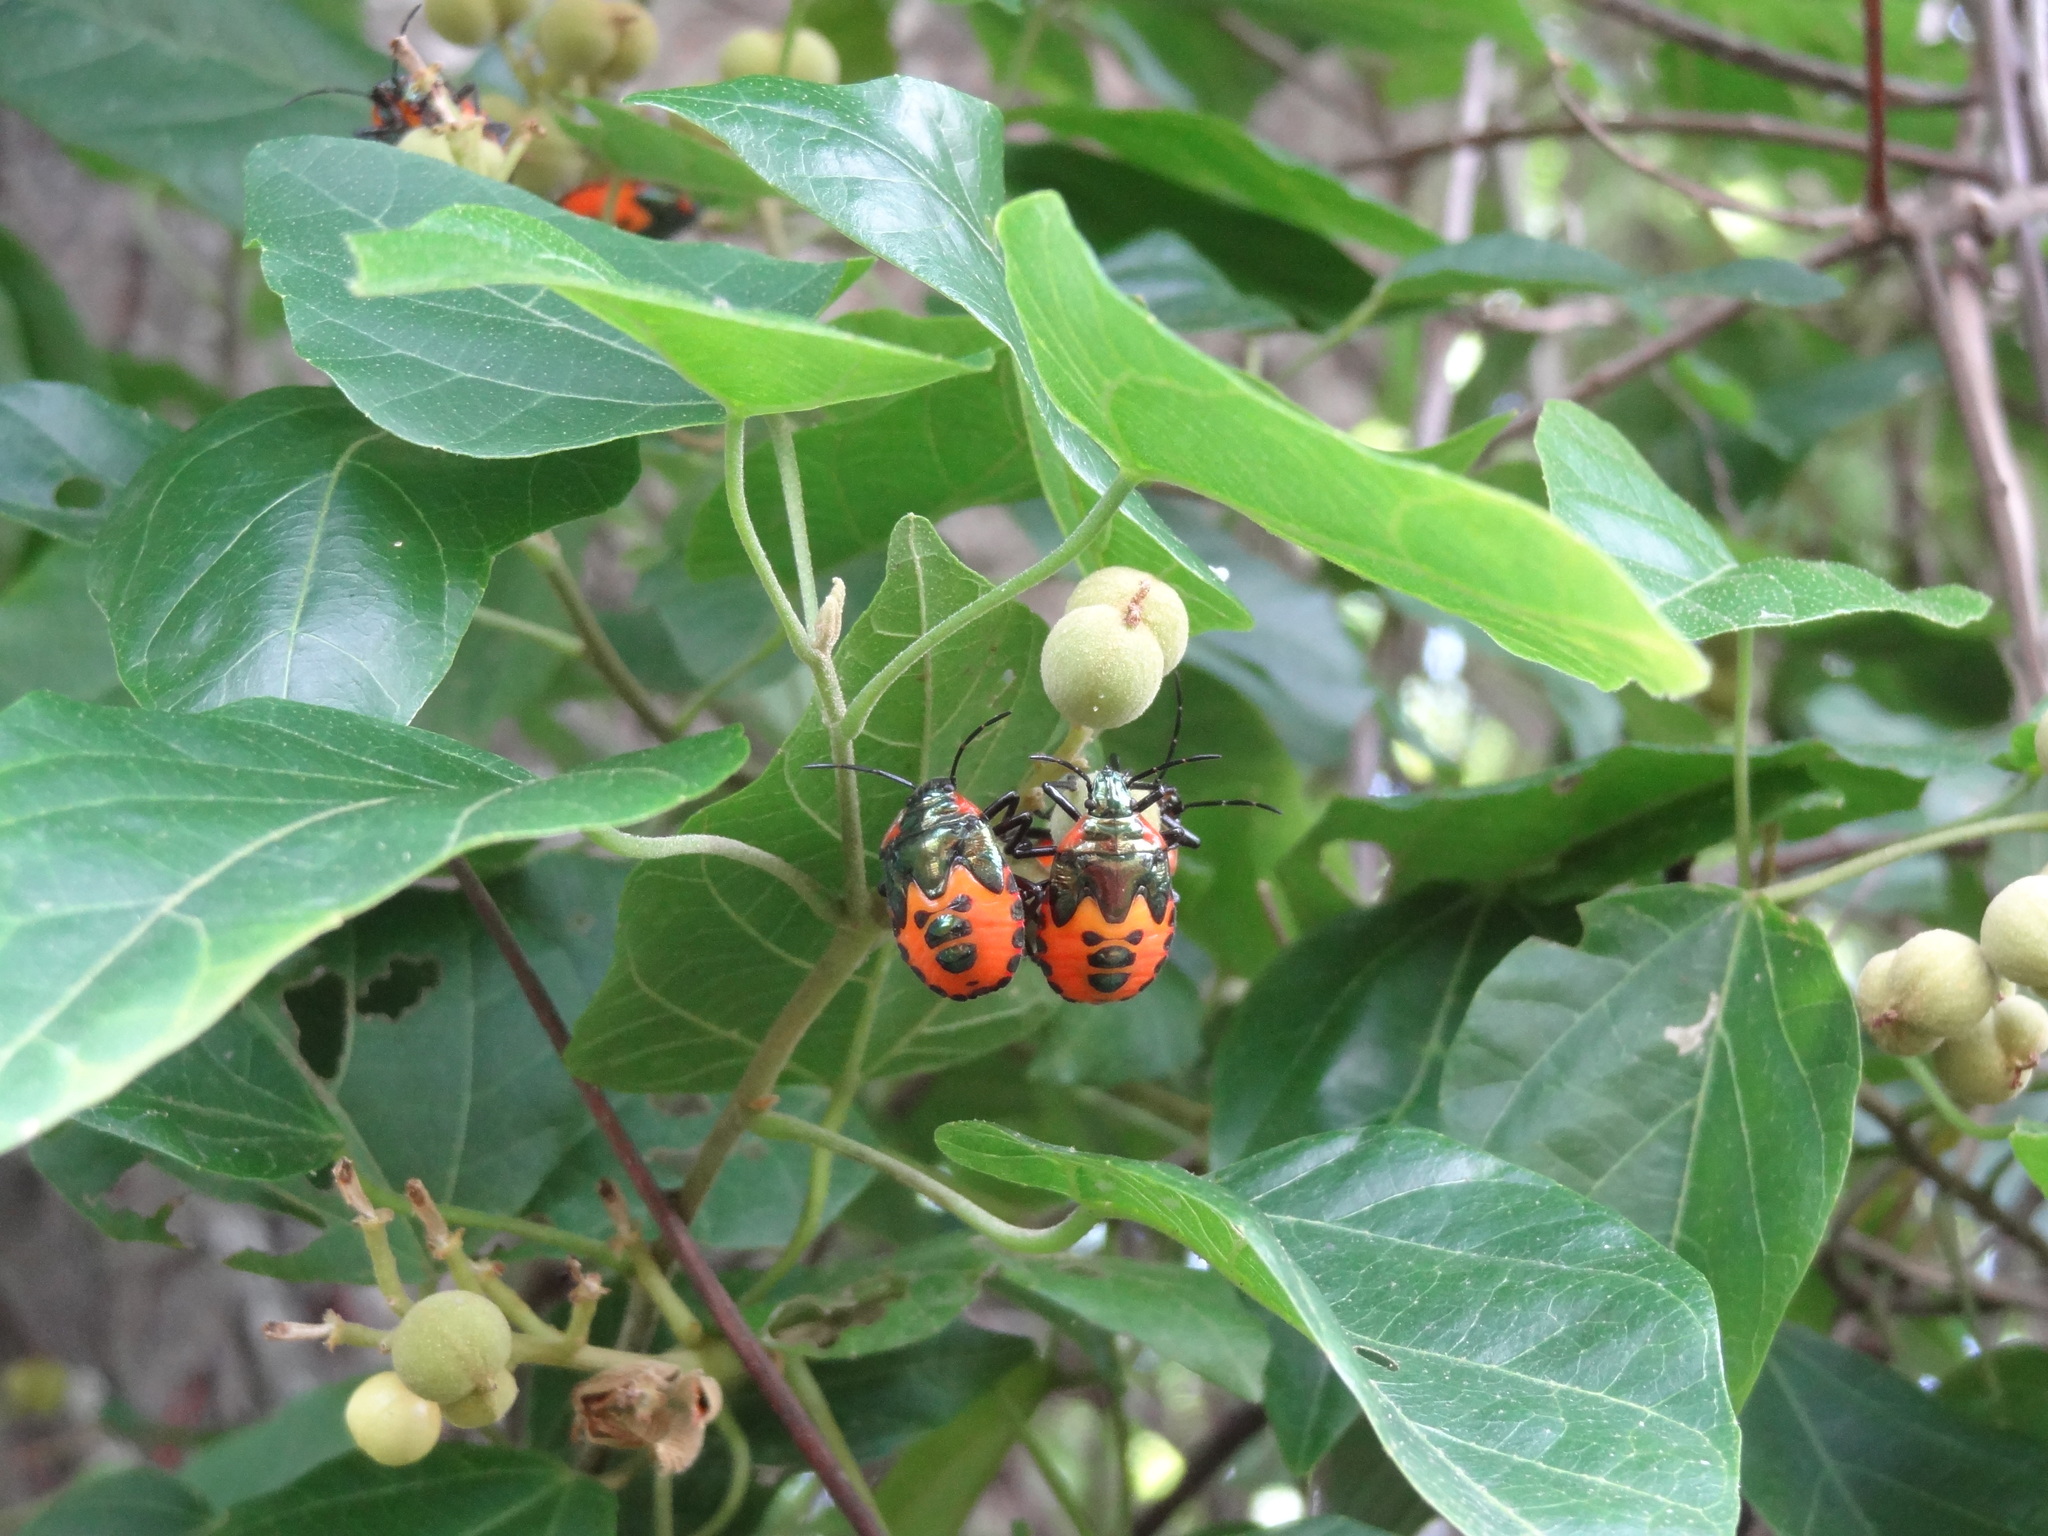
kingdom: Animalia
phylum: Arthropoda
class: Insecta
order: Hemiptera
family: Scutelleridae
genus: Cantao
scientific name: Cantao ocellatus
